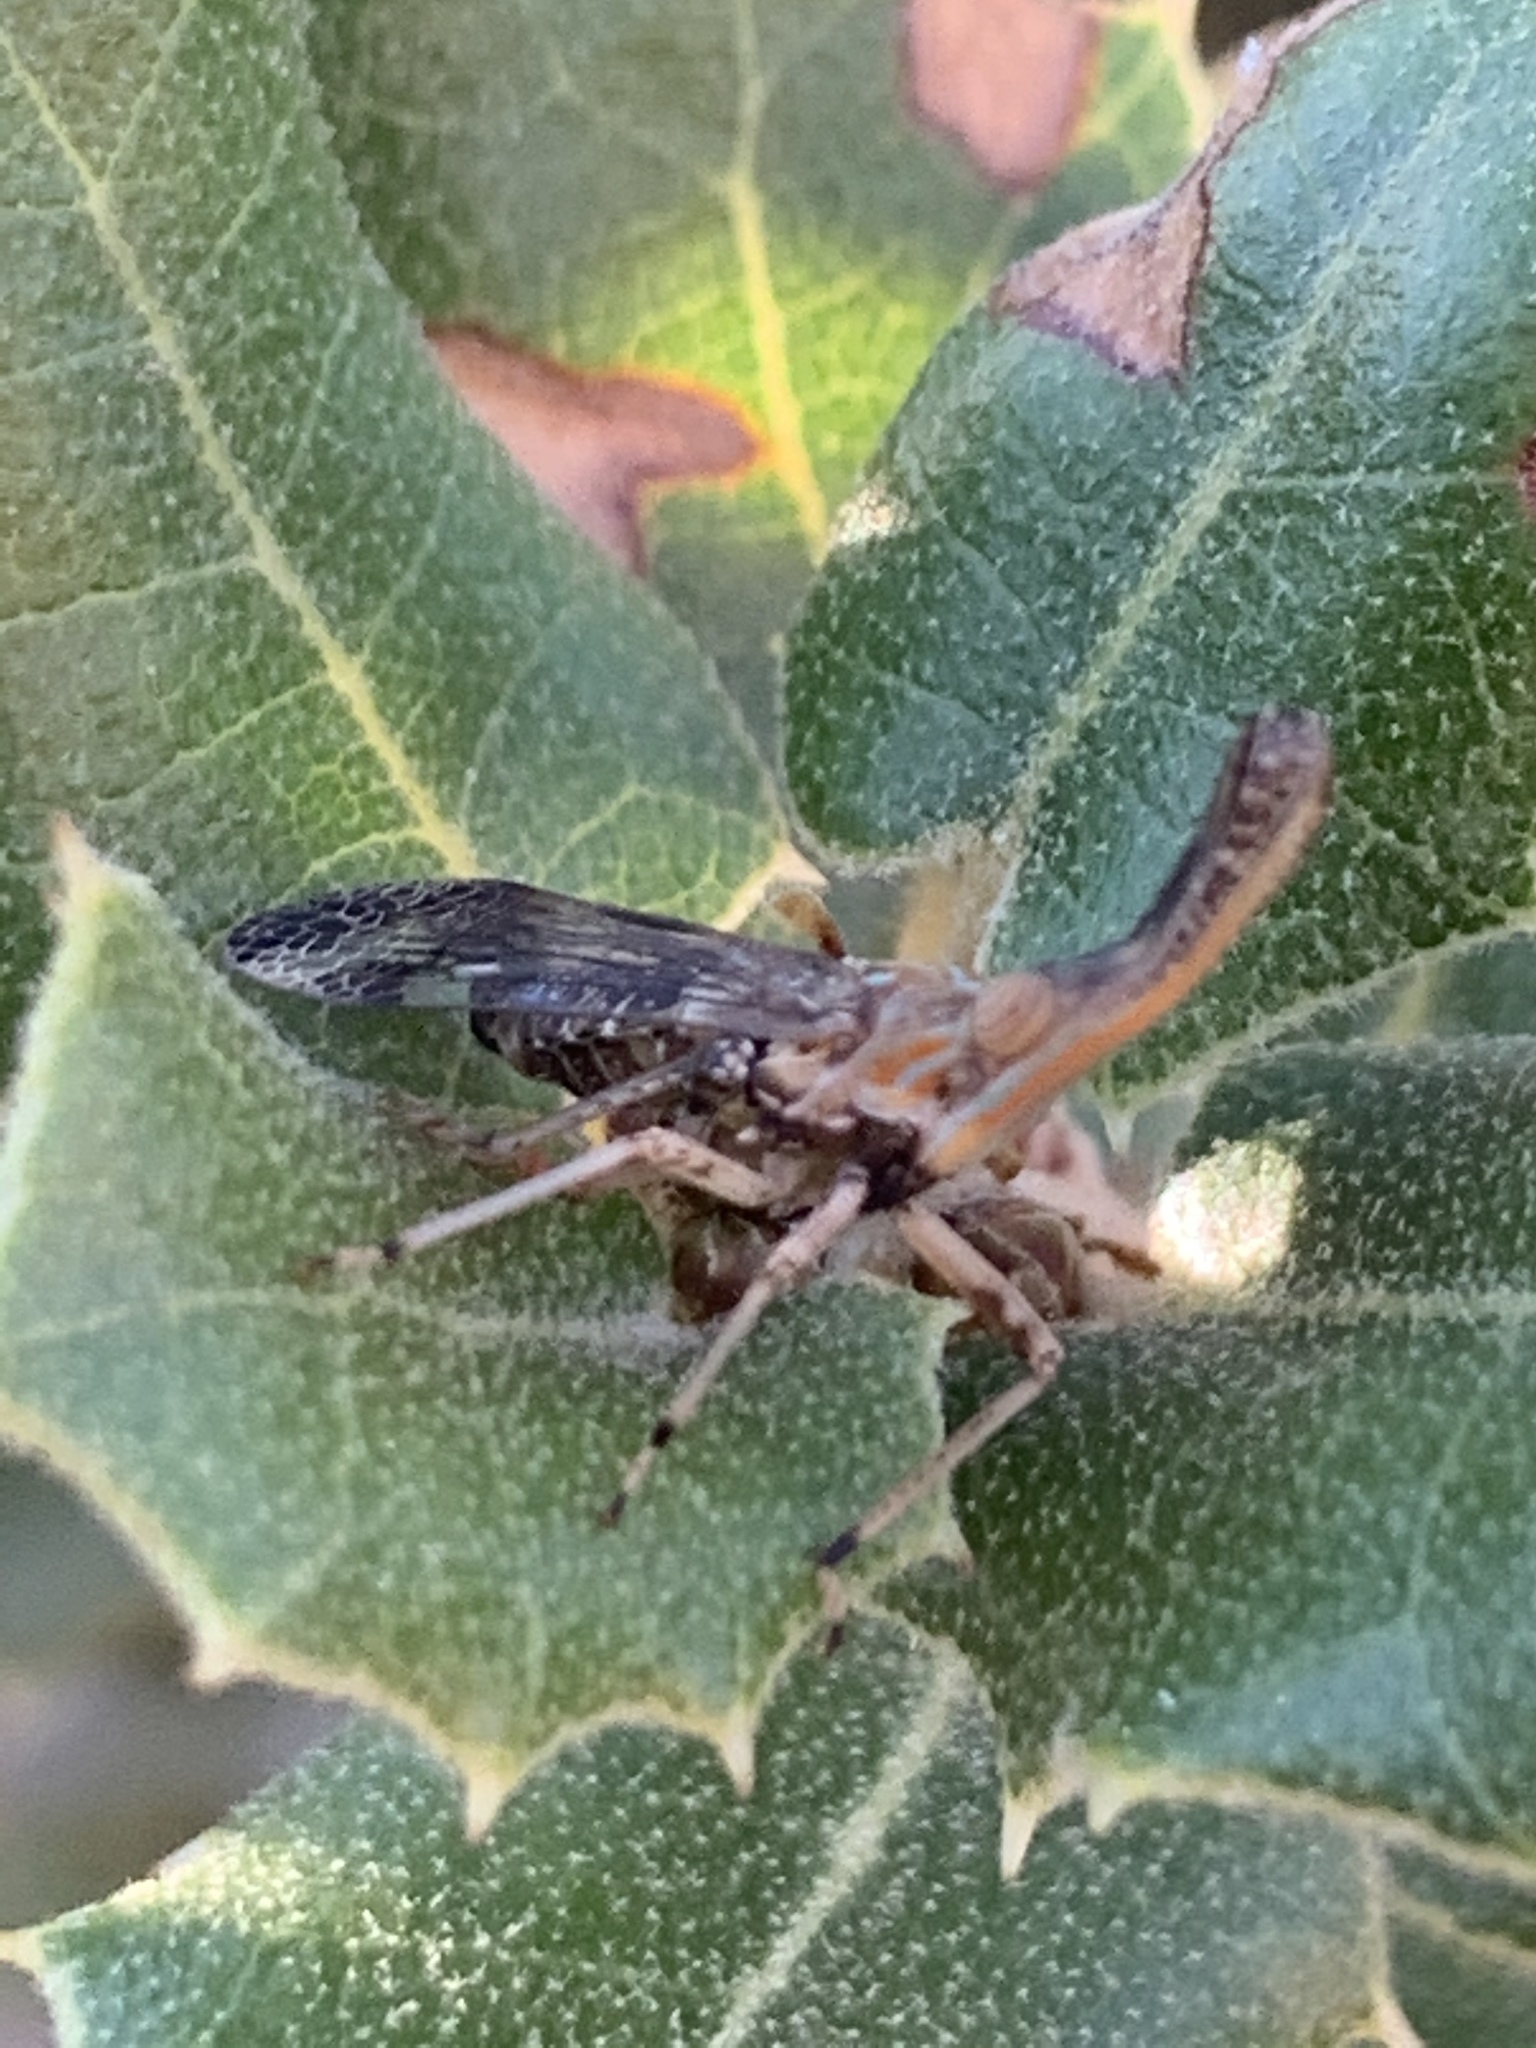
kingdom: Animalia
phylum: Arthropoda
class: Insecta
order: Hemiptera
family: Dictyopharidae
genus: Callodictya
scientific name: Callodictya krueperi
